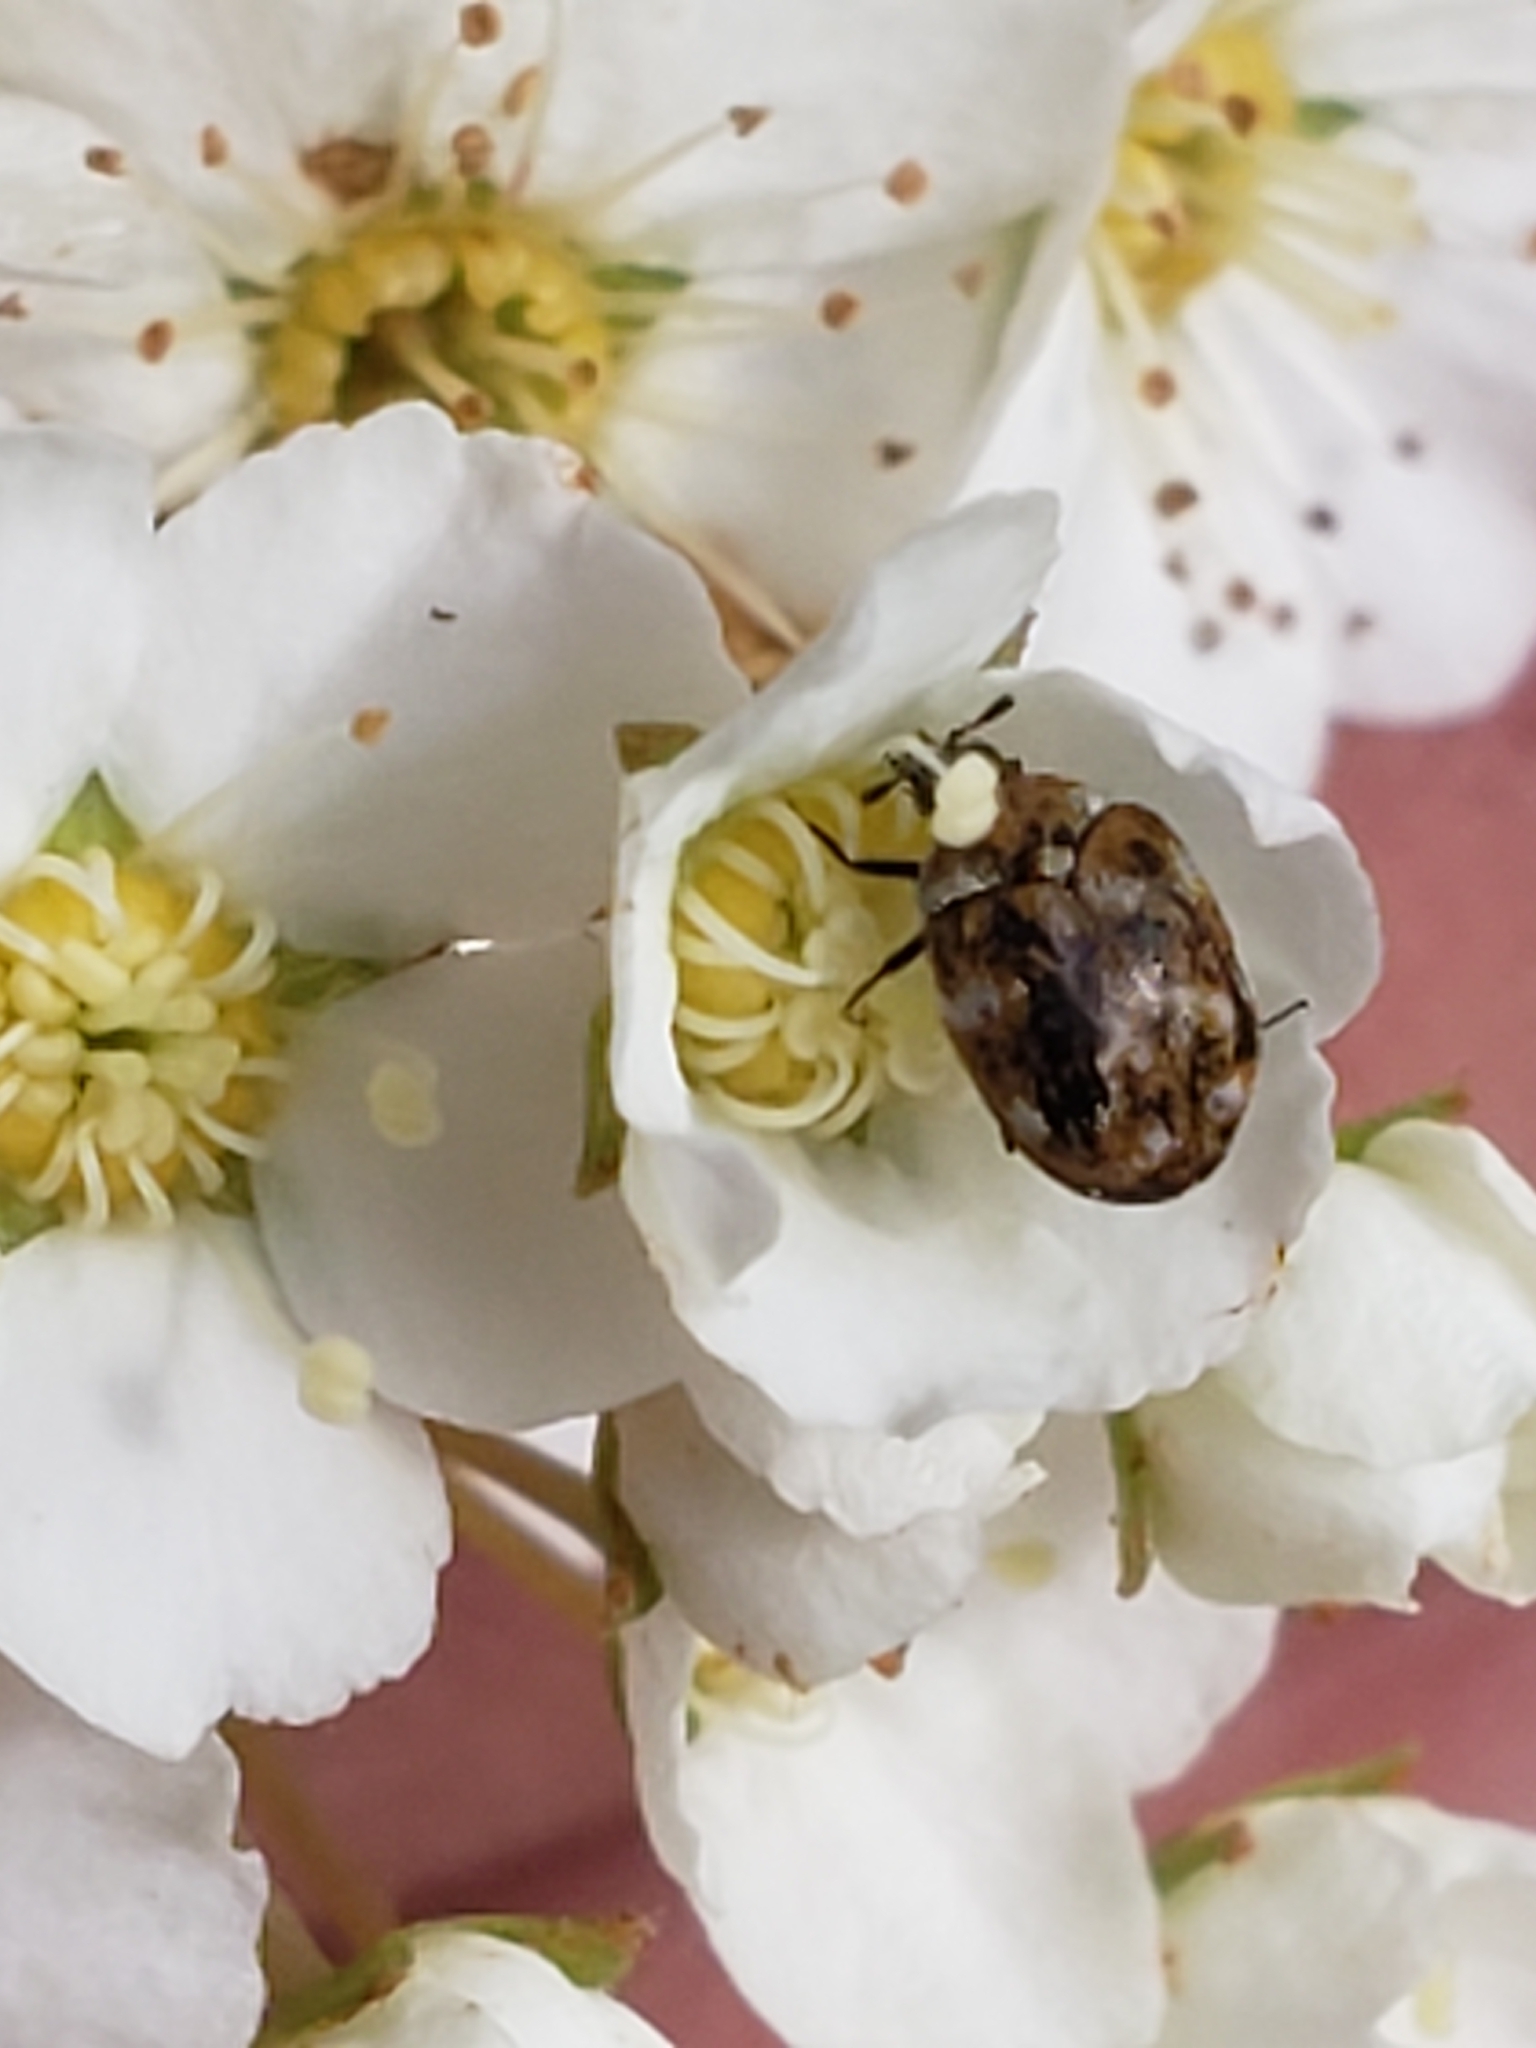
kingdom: Animalia
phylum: Arthropoda
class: Insecta
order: Coleoptera
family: Dermestidae
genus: Anthrenus
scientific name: Anthrenus verbasci
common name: Varied carpet beetle
